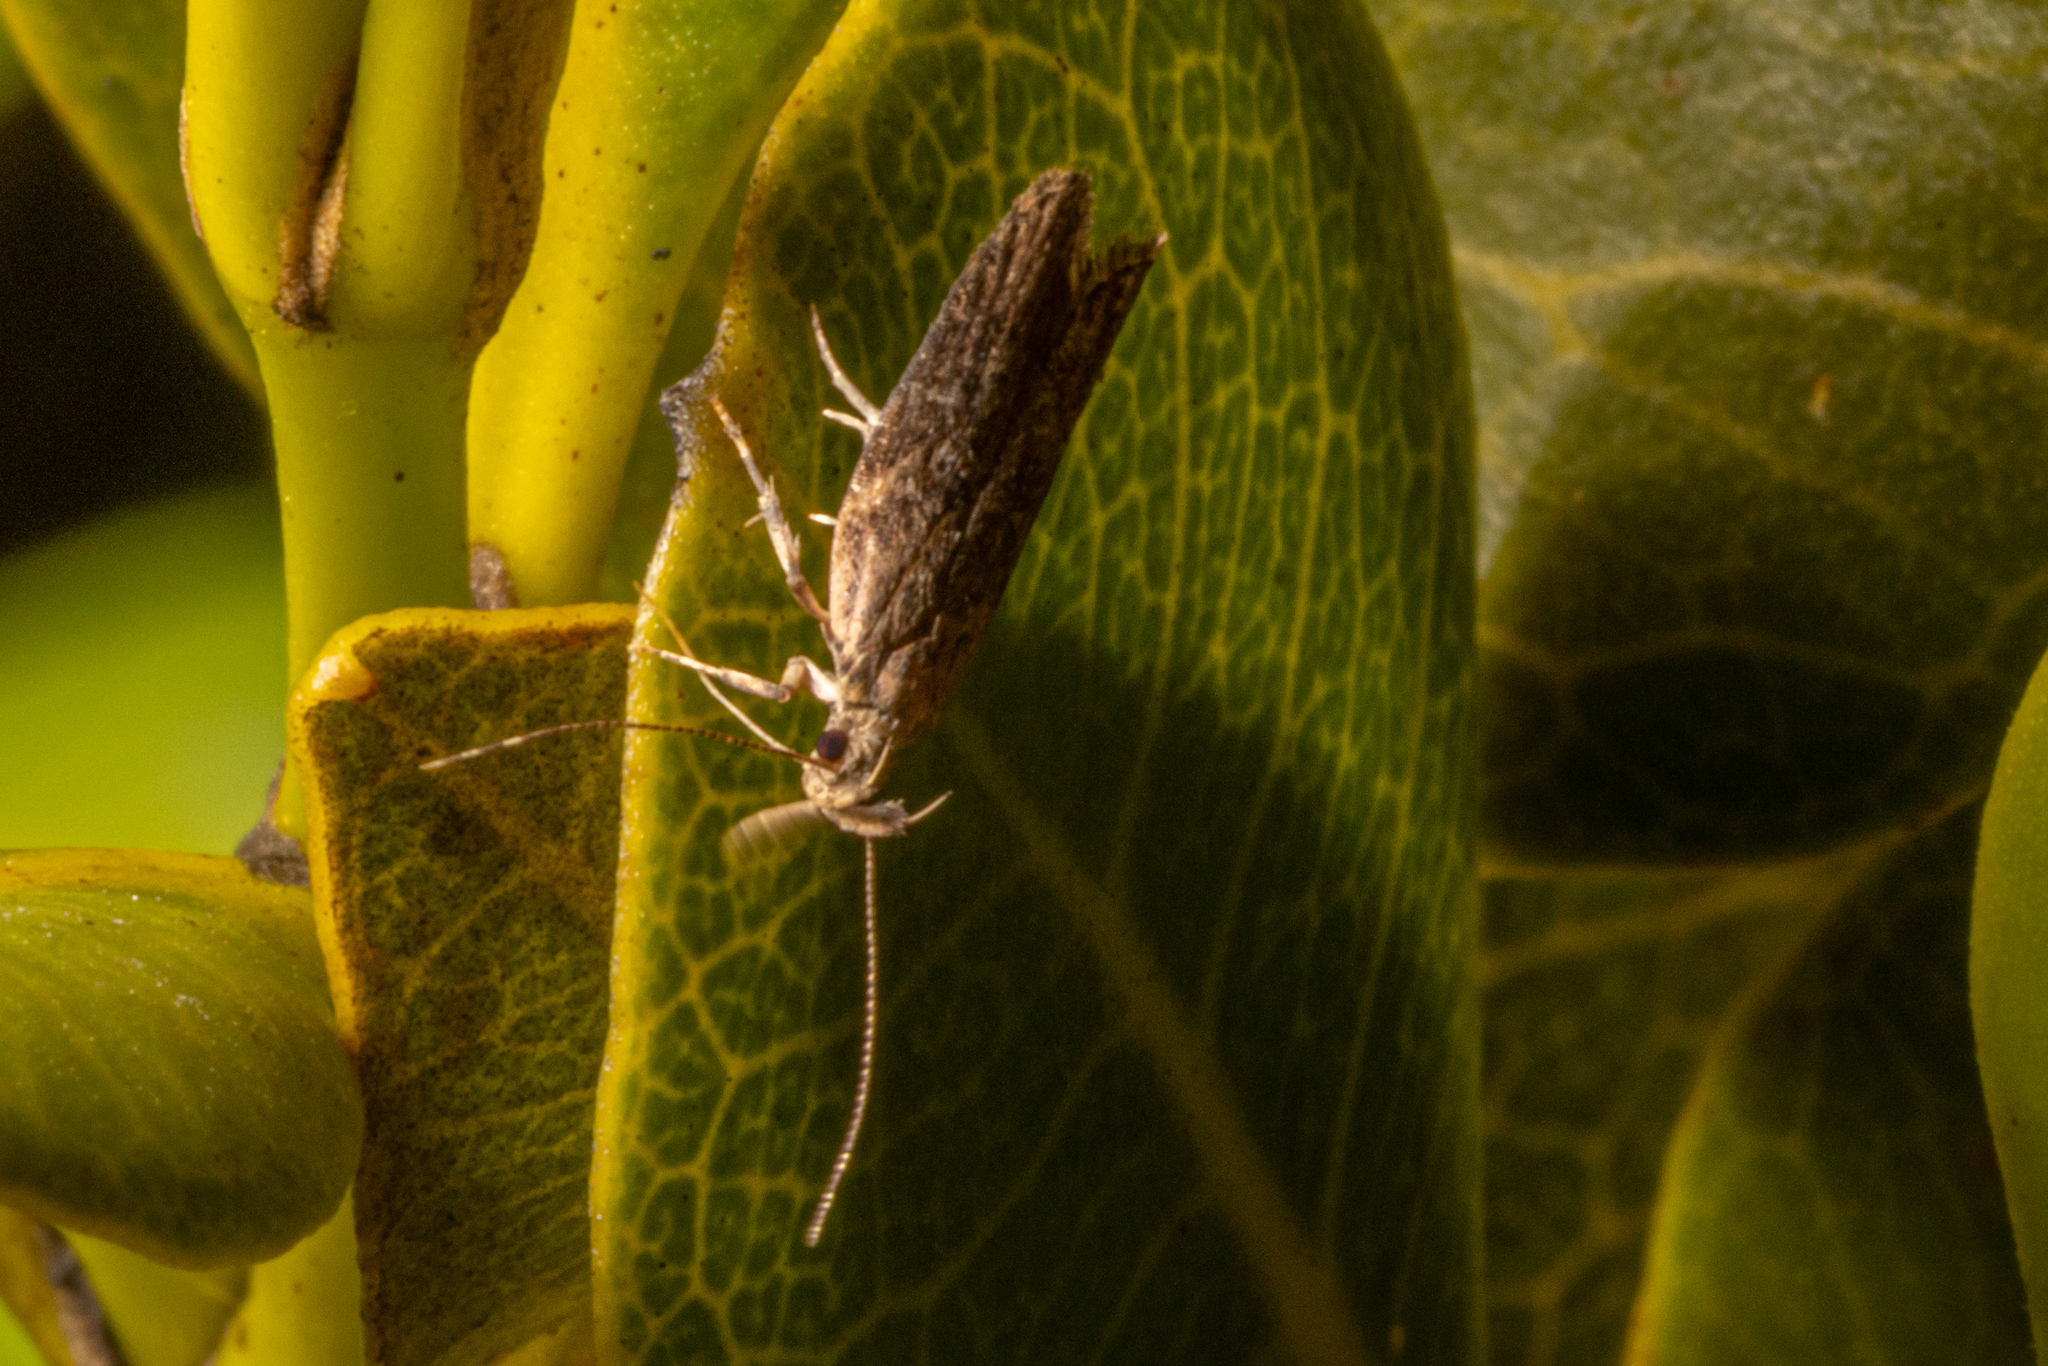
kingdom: Animalia
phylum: Arthropoda
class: Insecta
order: Lepidoptera
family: Depressariidae
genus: Eutorna
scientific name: Eutorna phaulocosma
